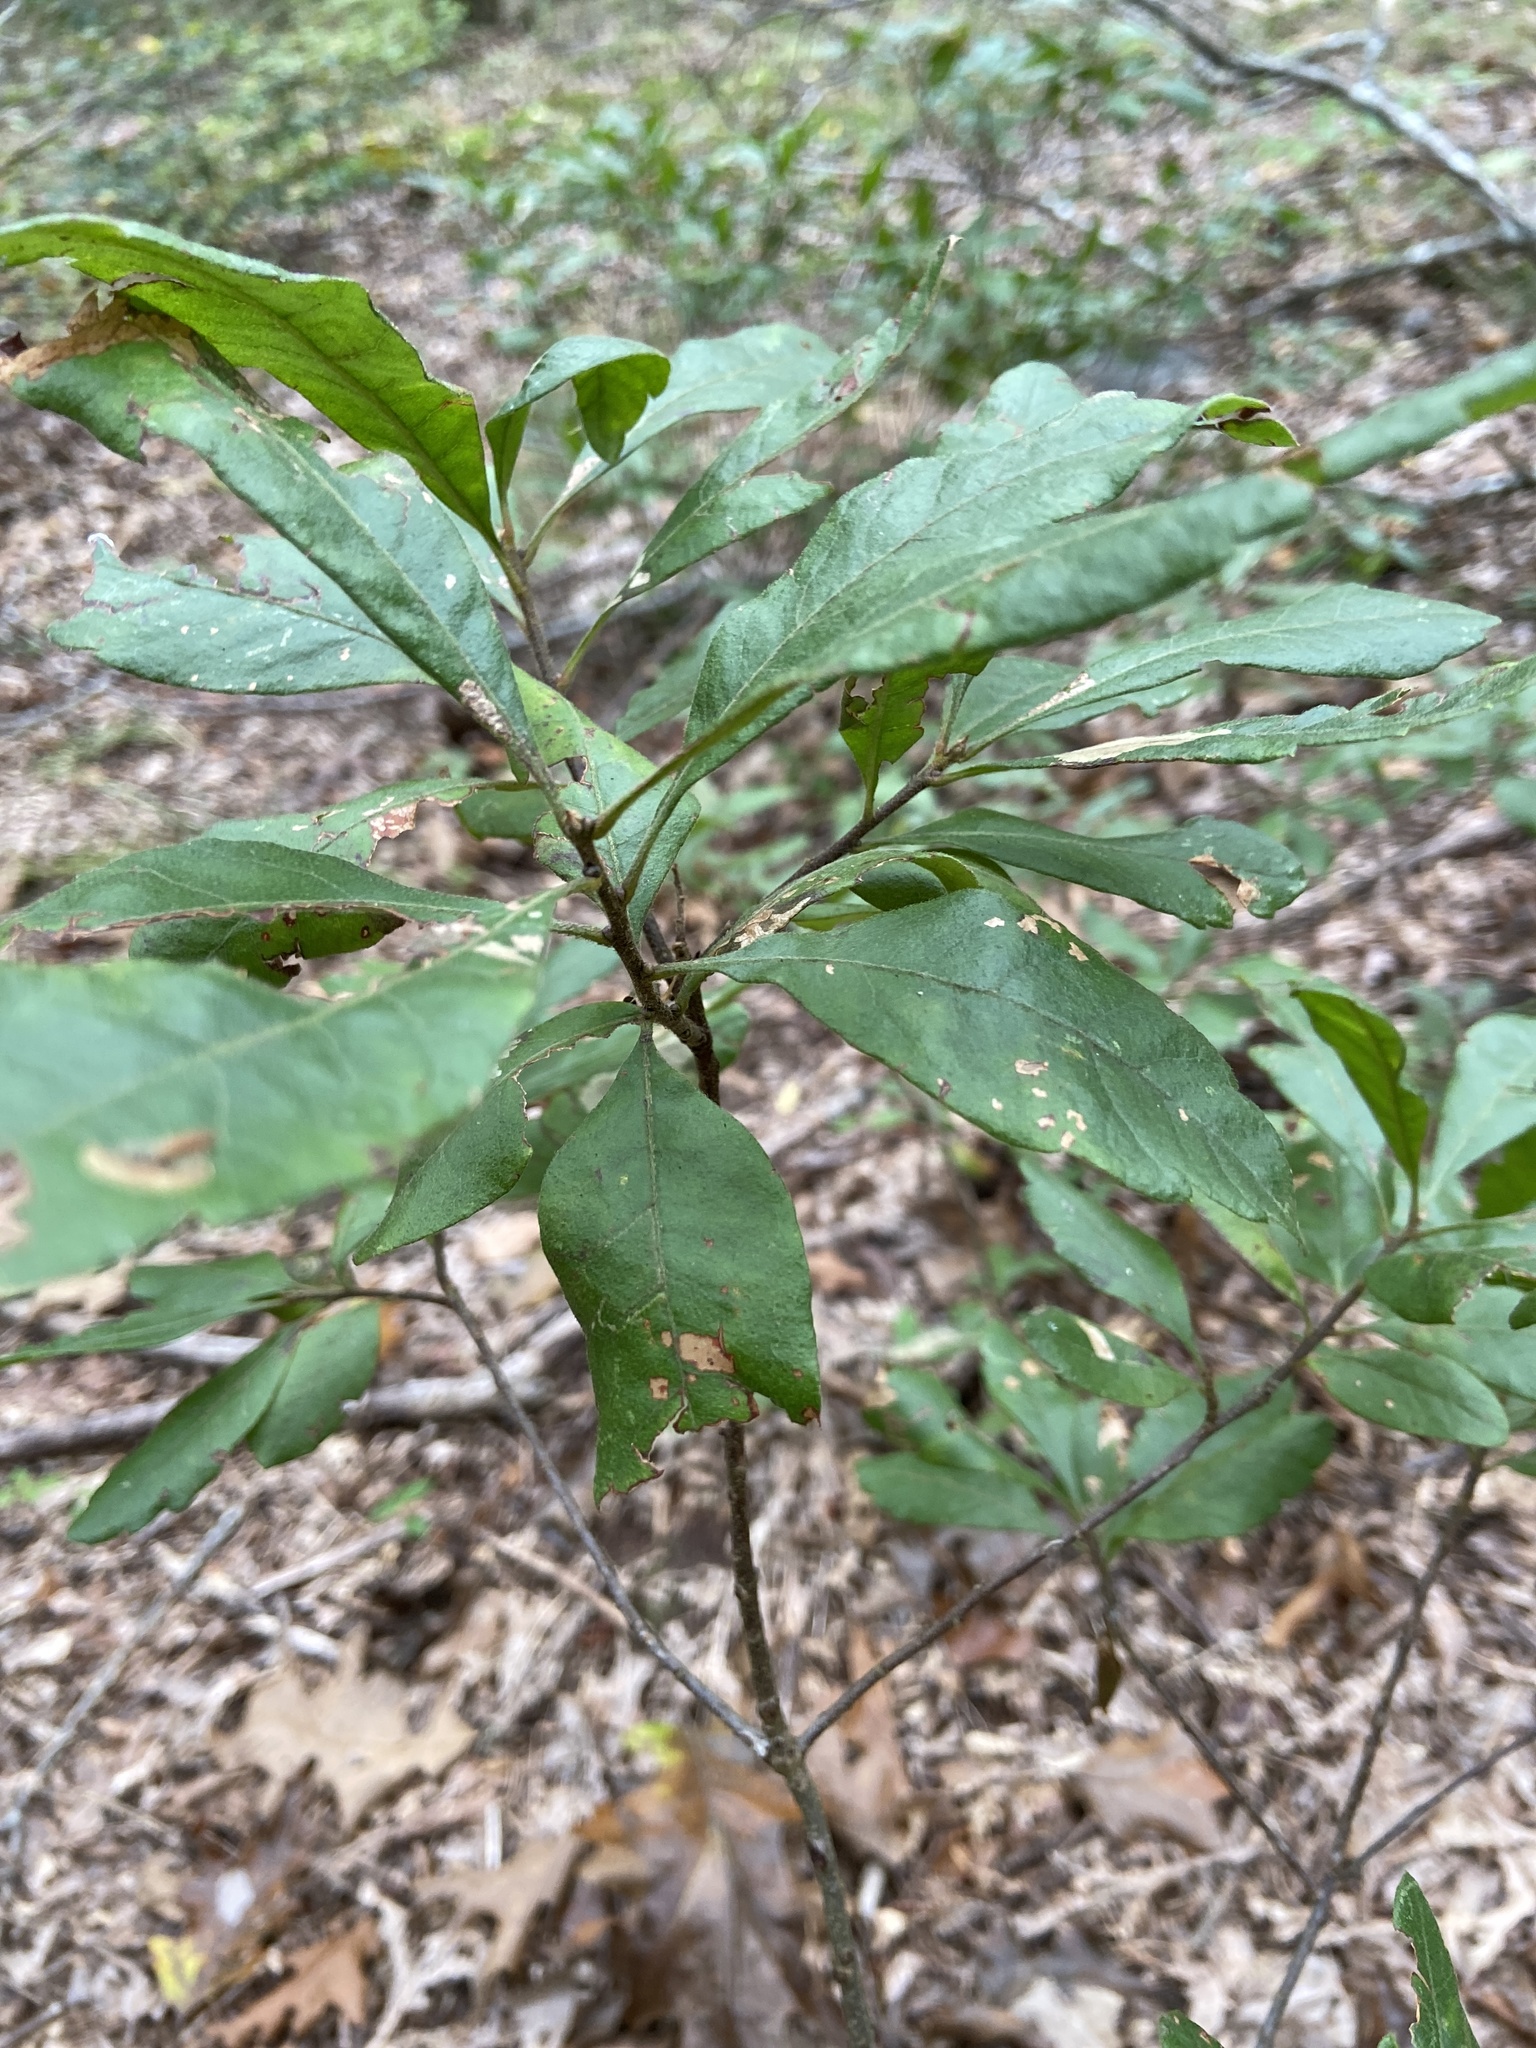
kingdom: Plantae
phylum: Tracheophyta
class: Magnoliopsida
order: Fagales
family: Myricaceae
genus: Morella
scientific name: Morella pensylvanica
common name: Northern bayberry
